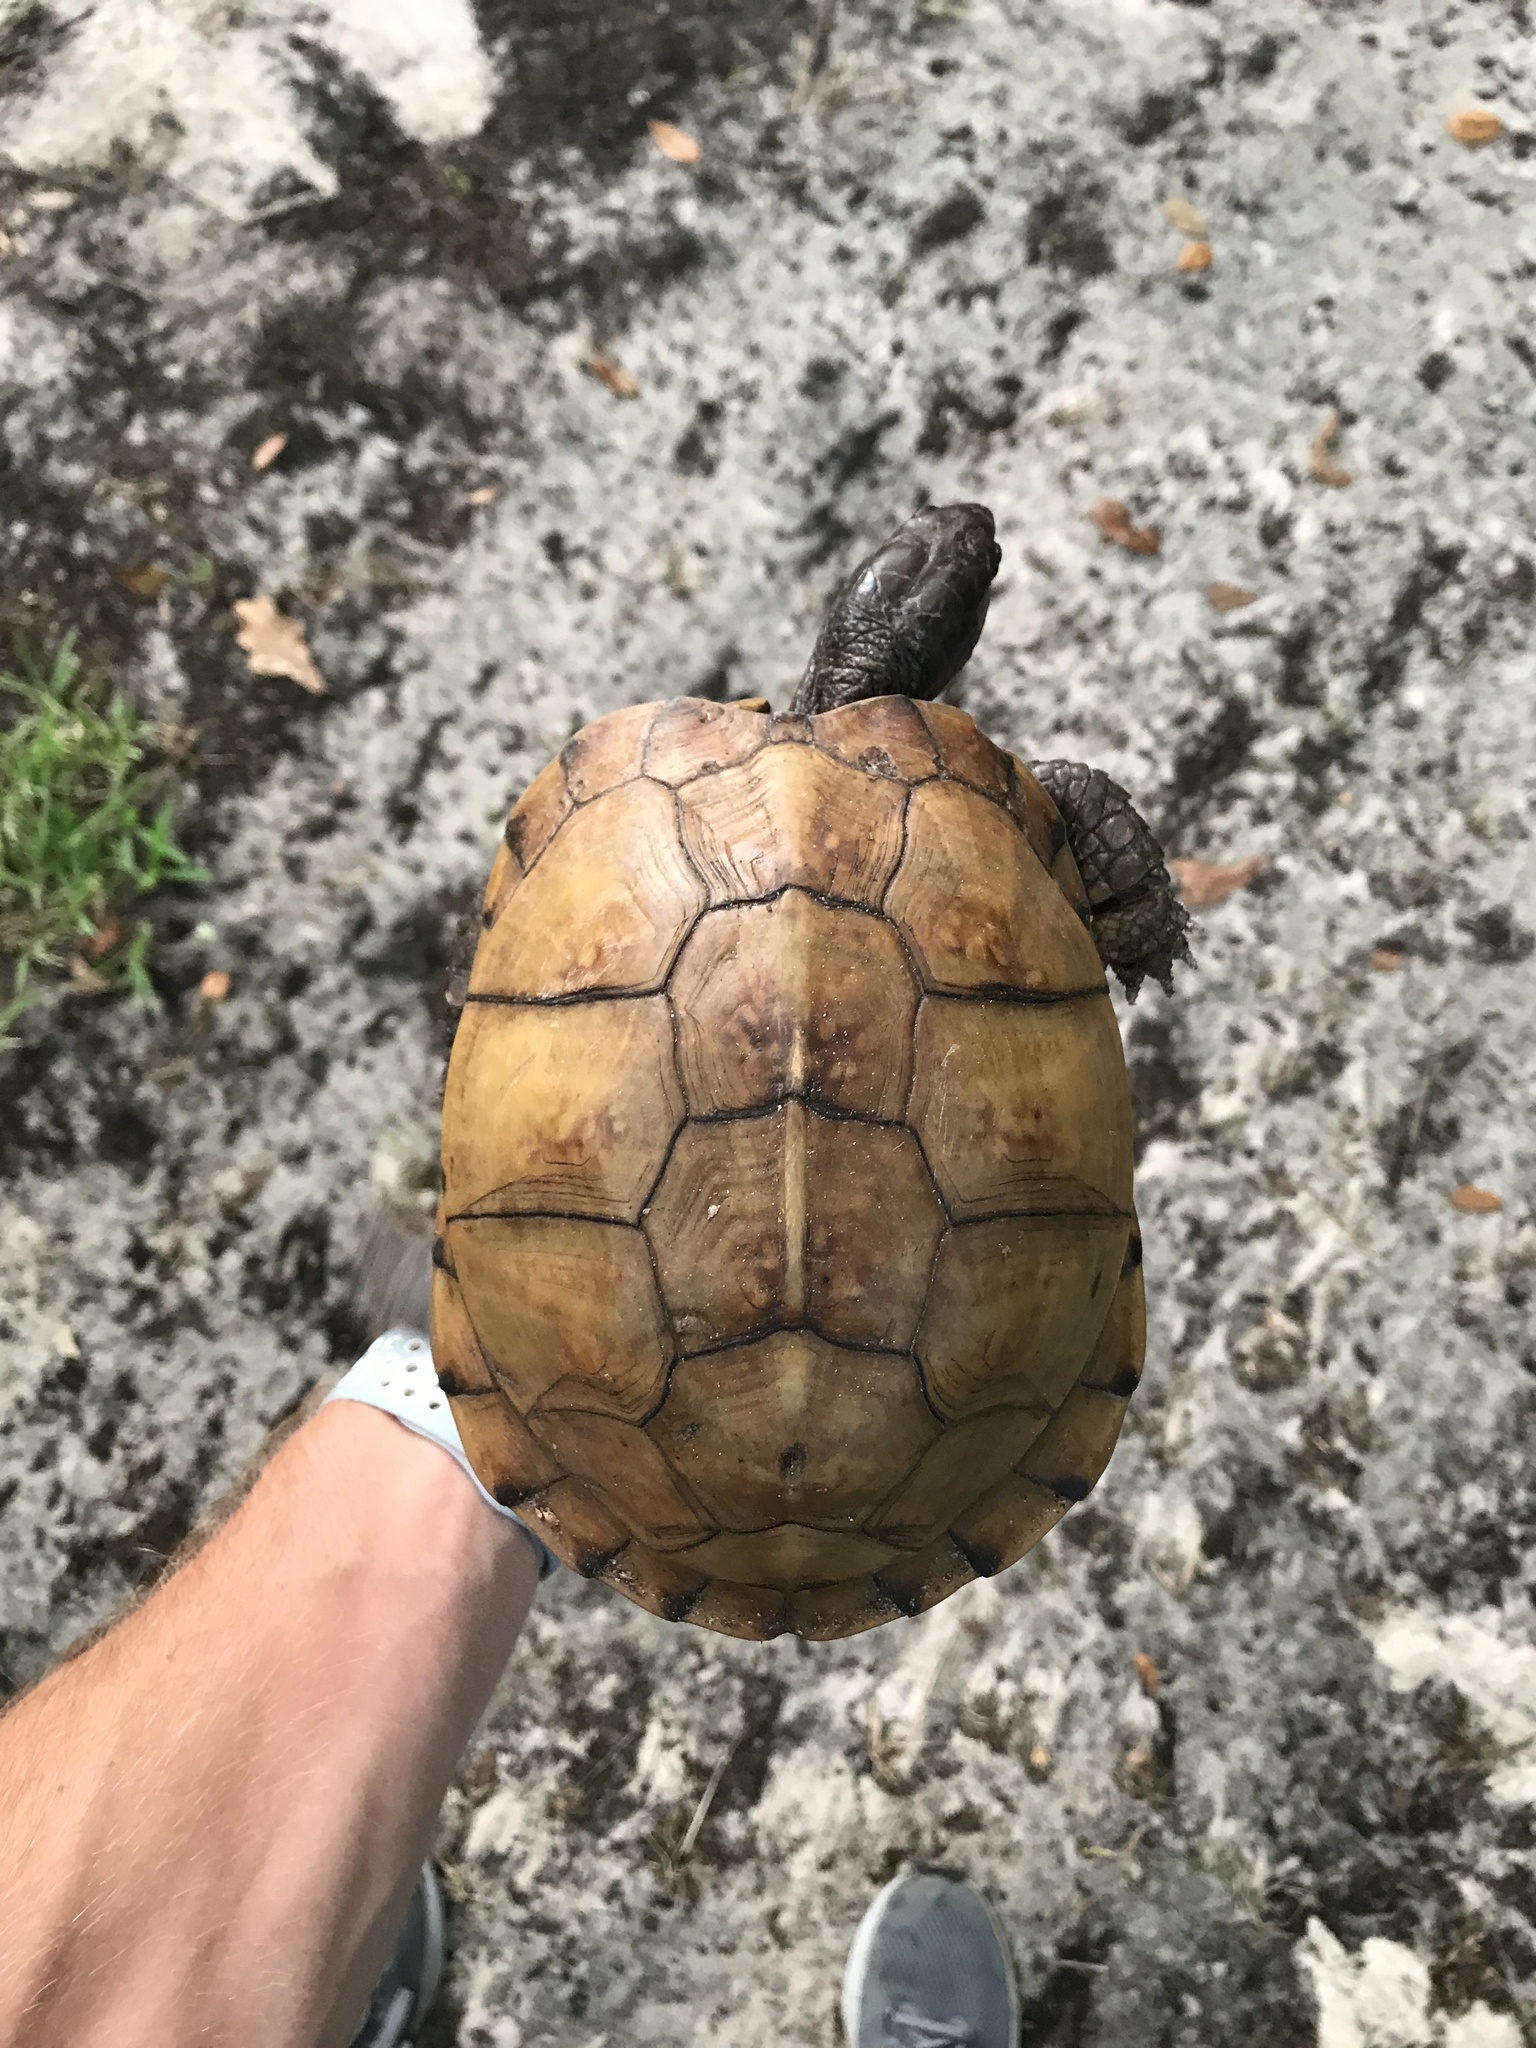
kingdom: Animalia
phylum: Chordata
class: Testudines
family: Emydidae
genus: Terrapene
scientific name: Terrapene carolina
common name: Common box turtle
